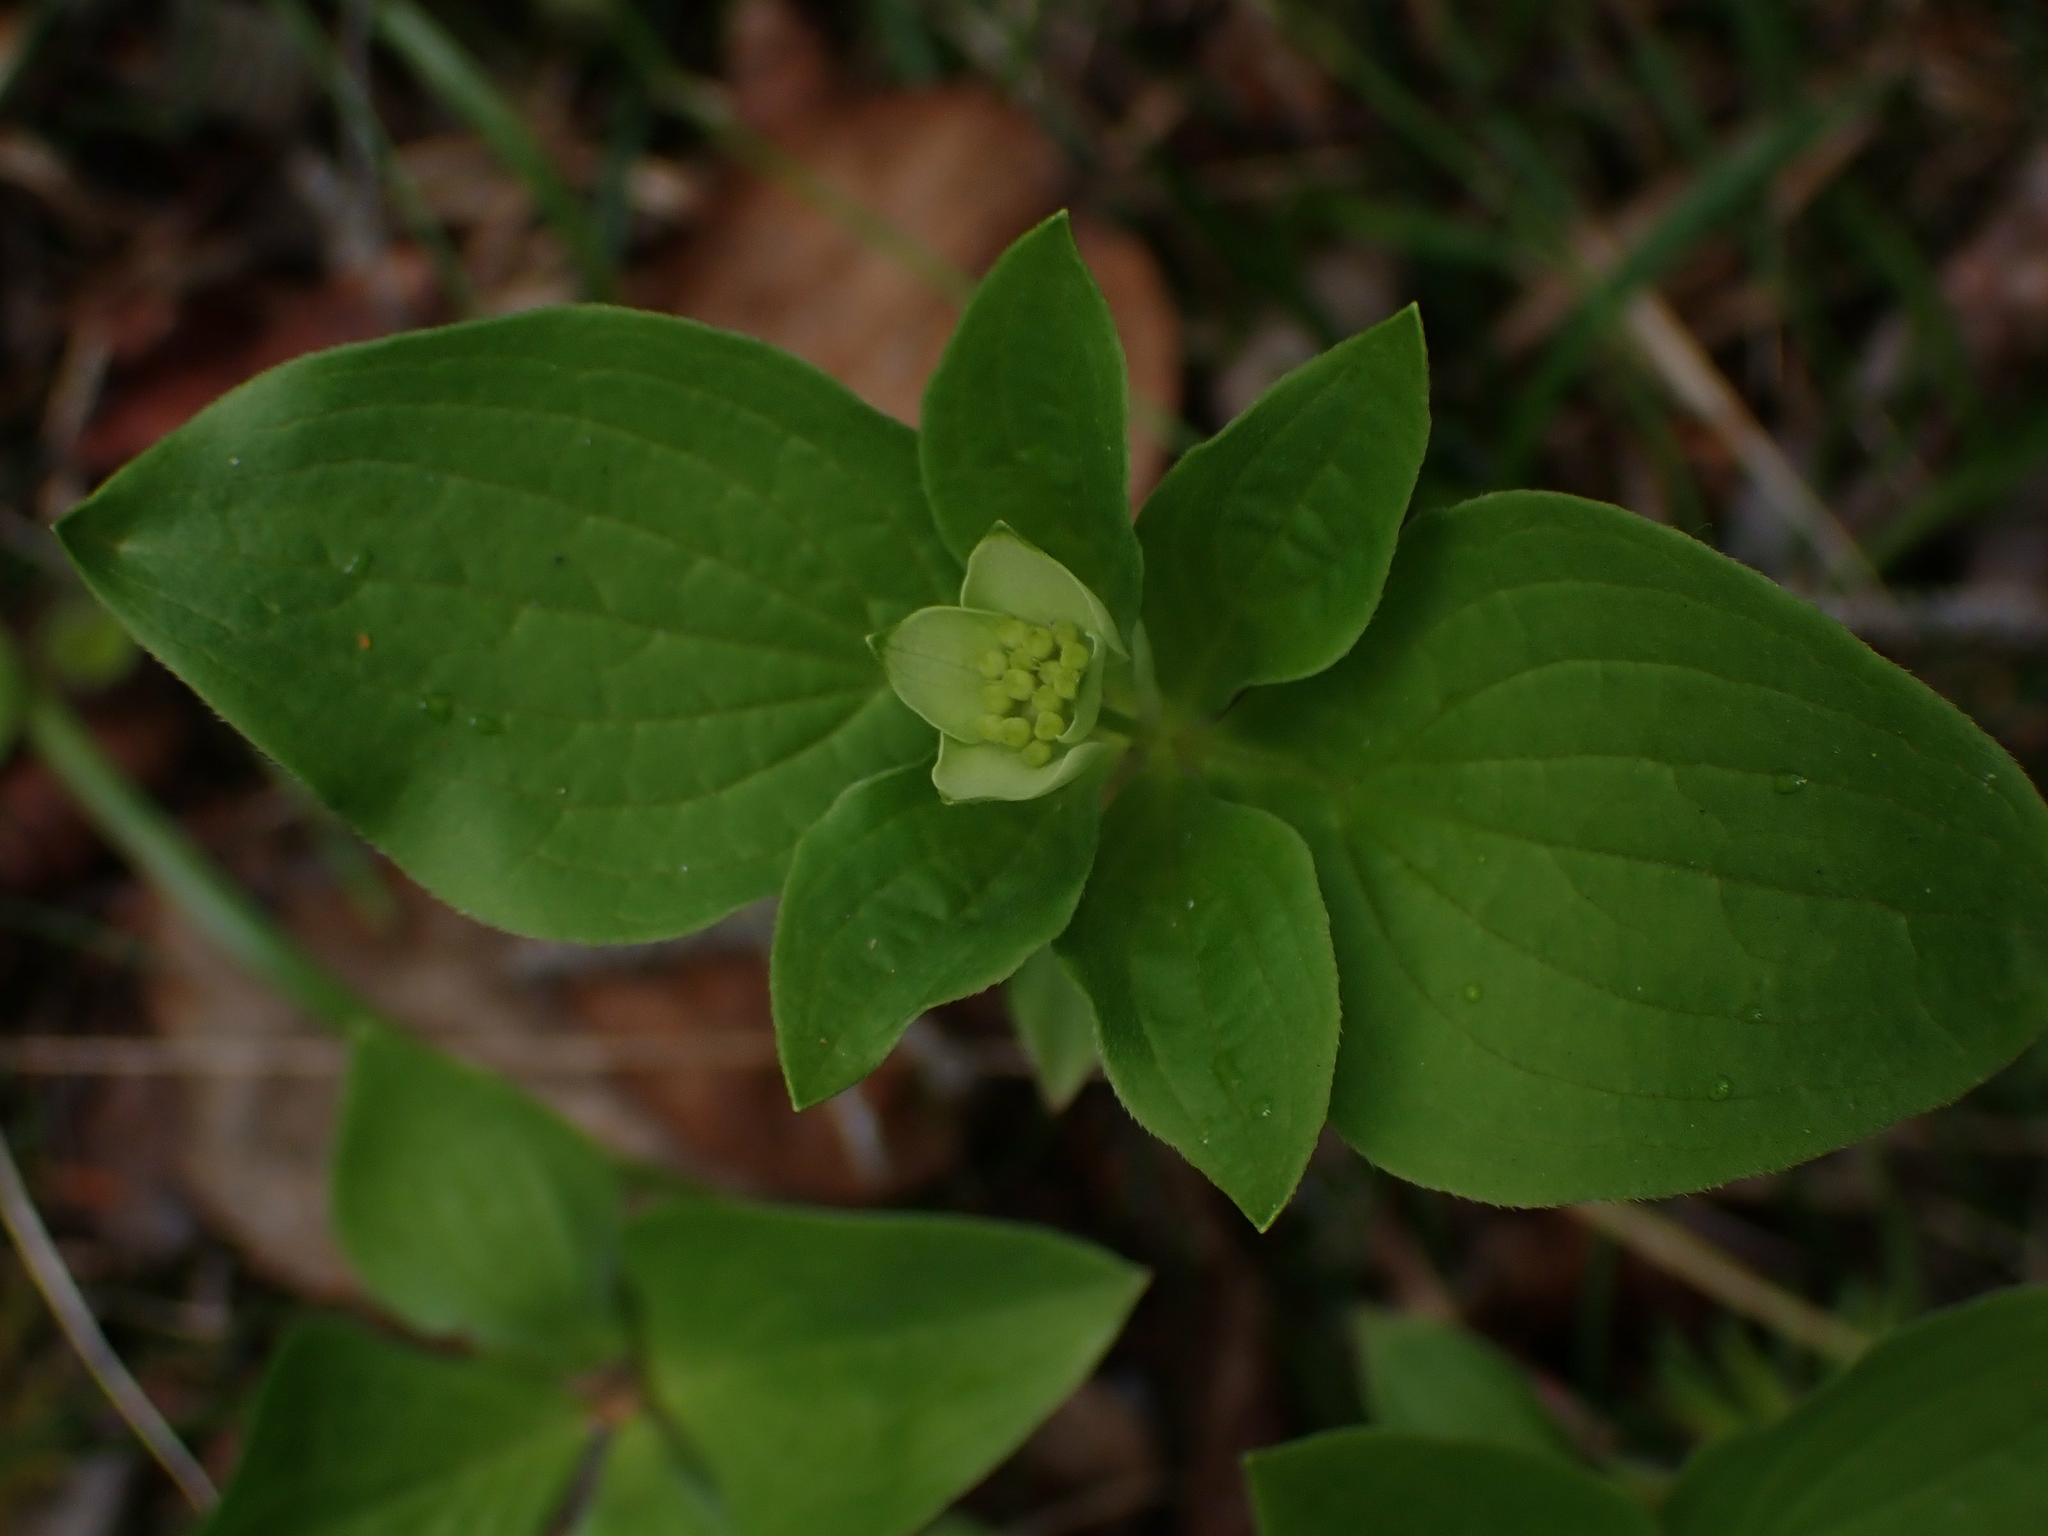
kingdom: Plantae
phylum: Tracheophyta
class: Magnoliopsida
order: Cornales
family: Cornaceae
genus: Cornus
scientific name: Cornus canadensis
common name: Creeping dogwood
